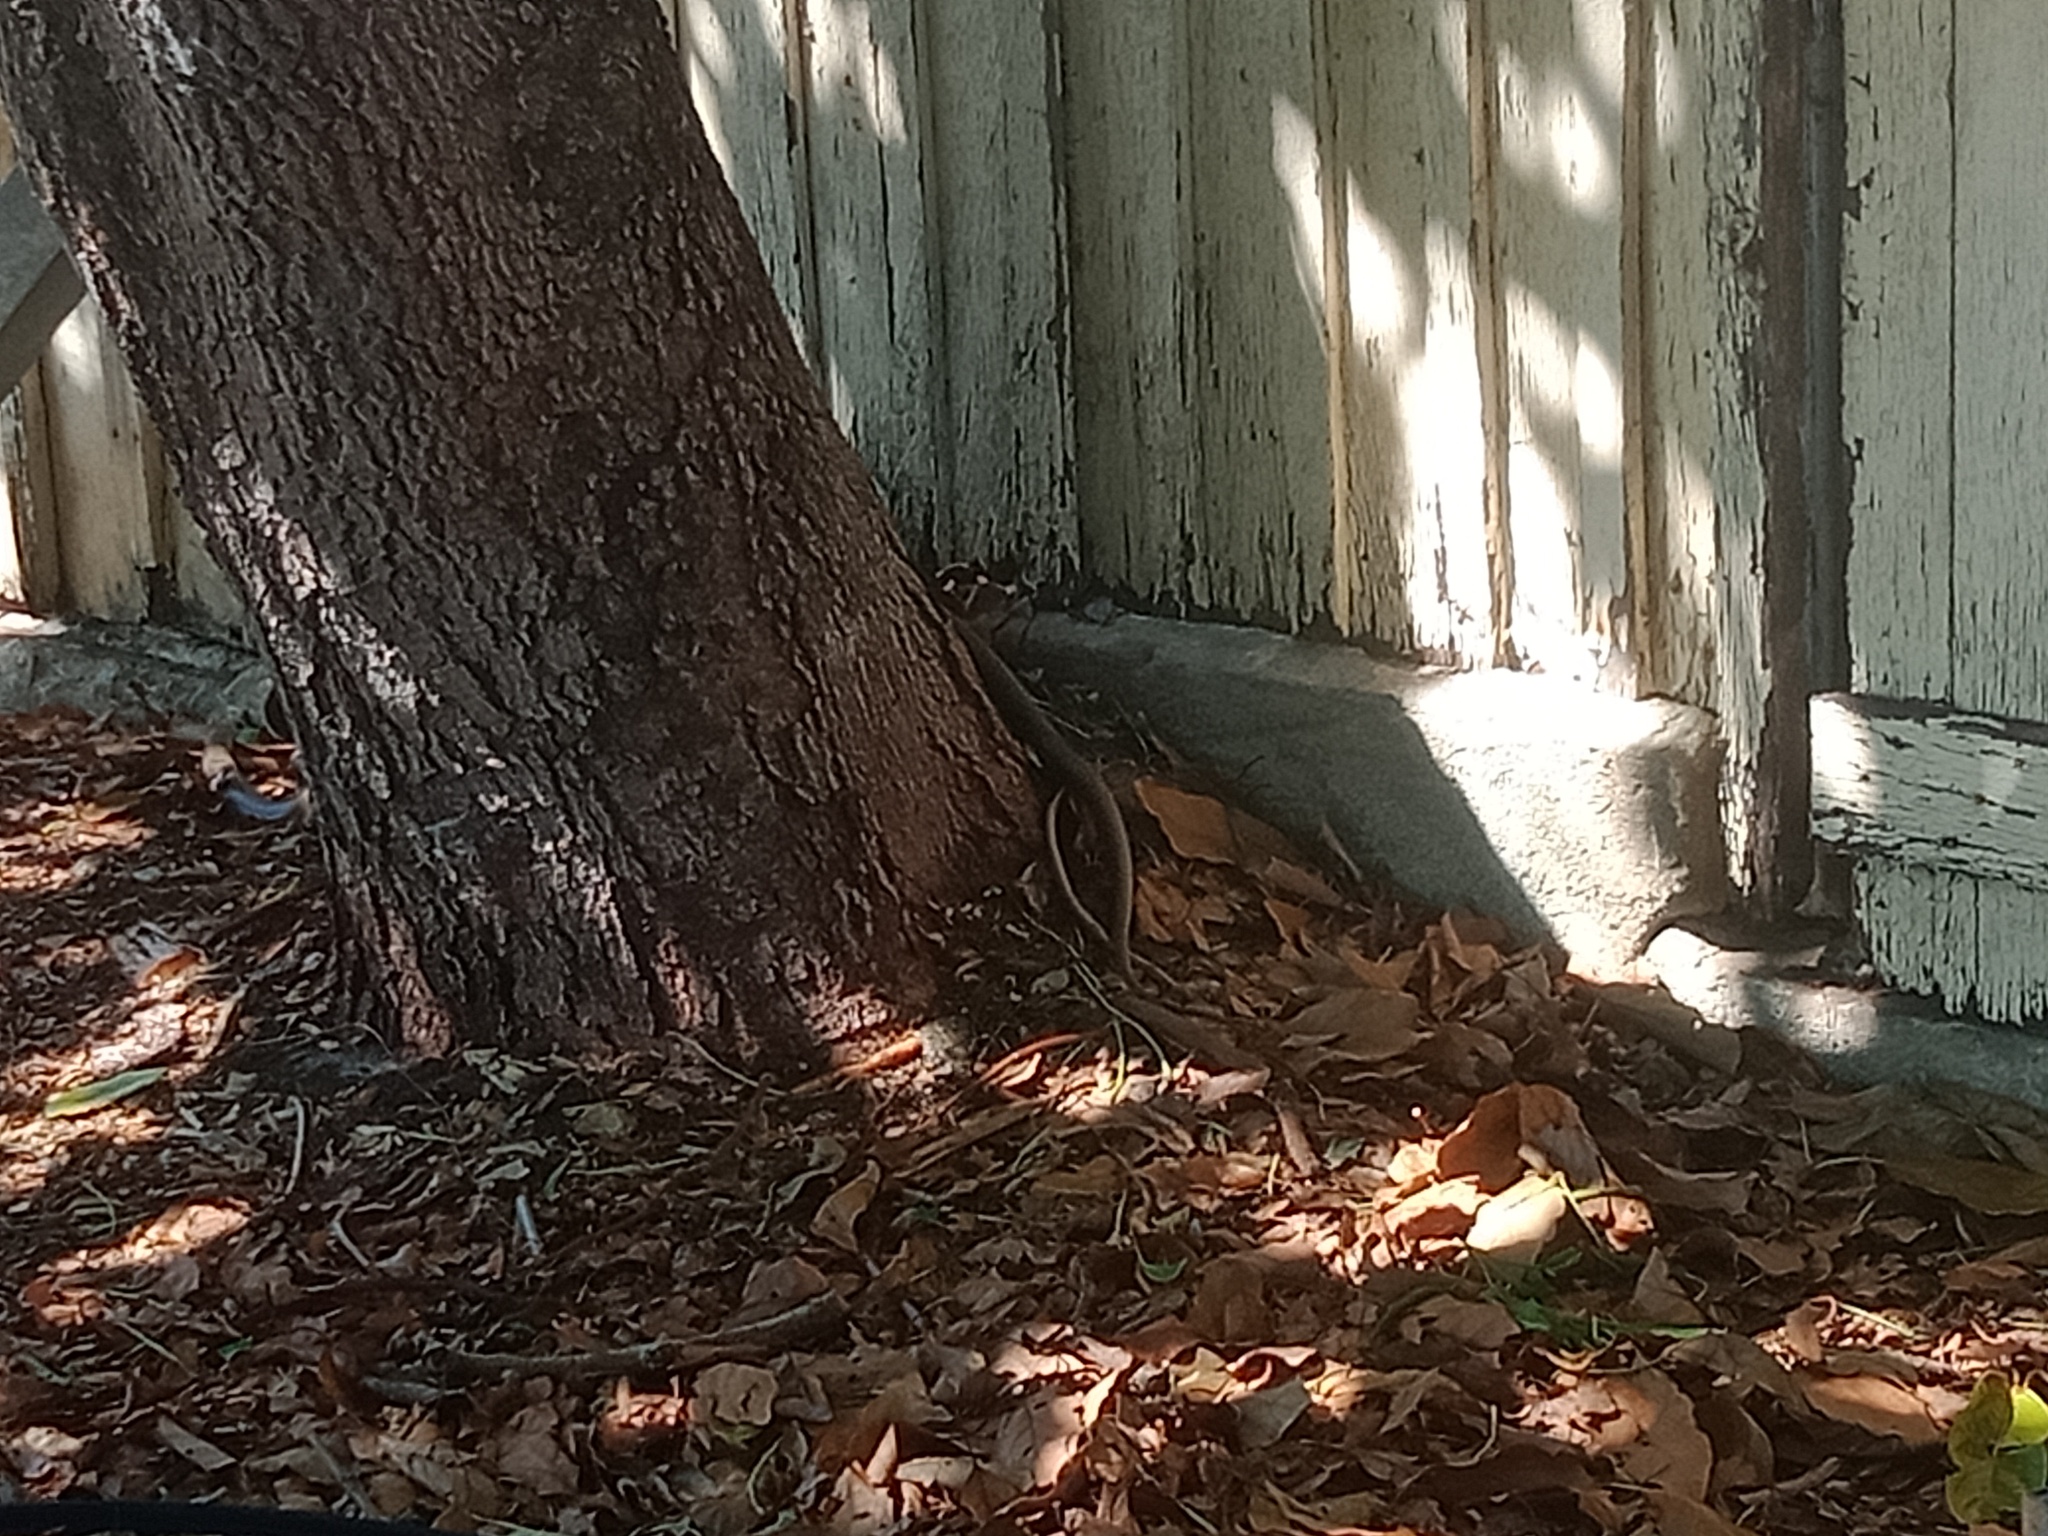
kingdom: Animalia
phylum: Chordata
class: Squamata
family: Elapidae
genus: Pseudonaja
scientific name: Pseudonaja textilis
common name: Eastern brown snake
